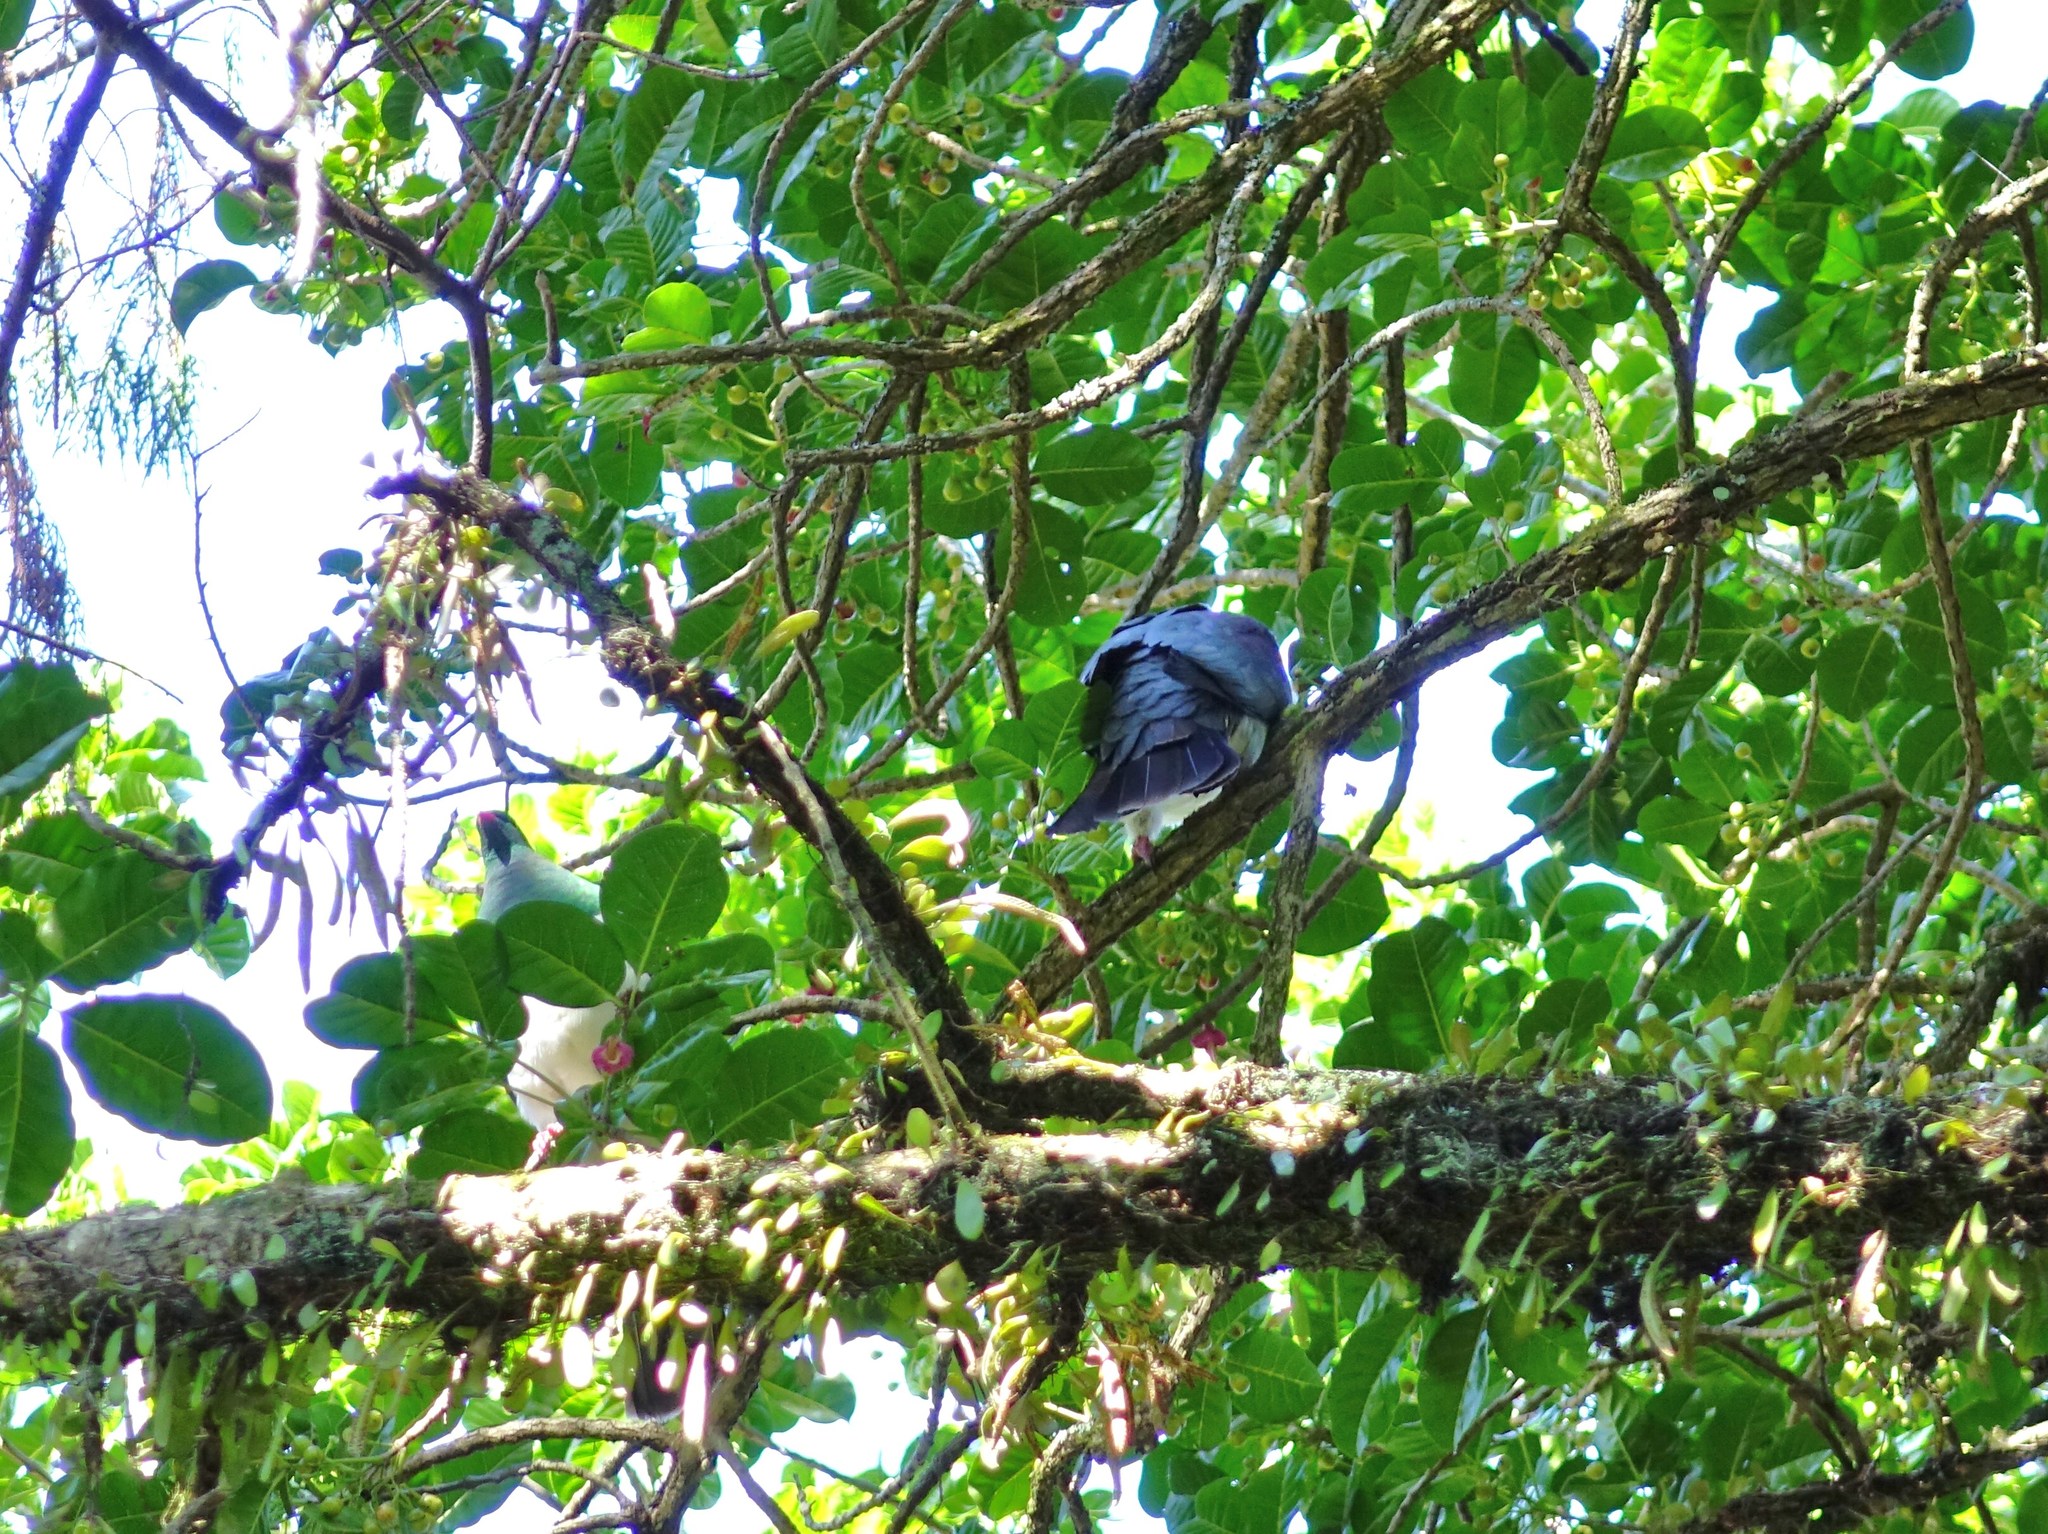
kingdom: Animalia
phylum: Chordata
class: Aves
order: Columbiformes
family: Columbidae
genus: Hemiphaga
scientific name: Hemiphaga novaeseelandiae
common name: New zealand pigeon
